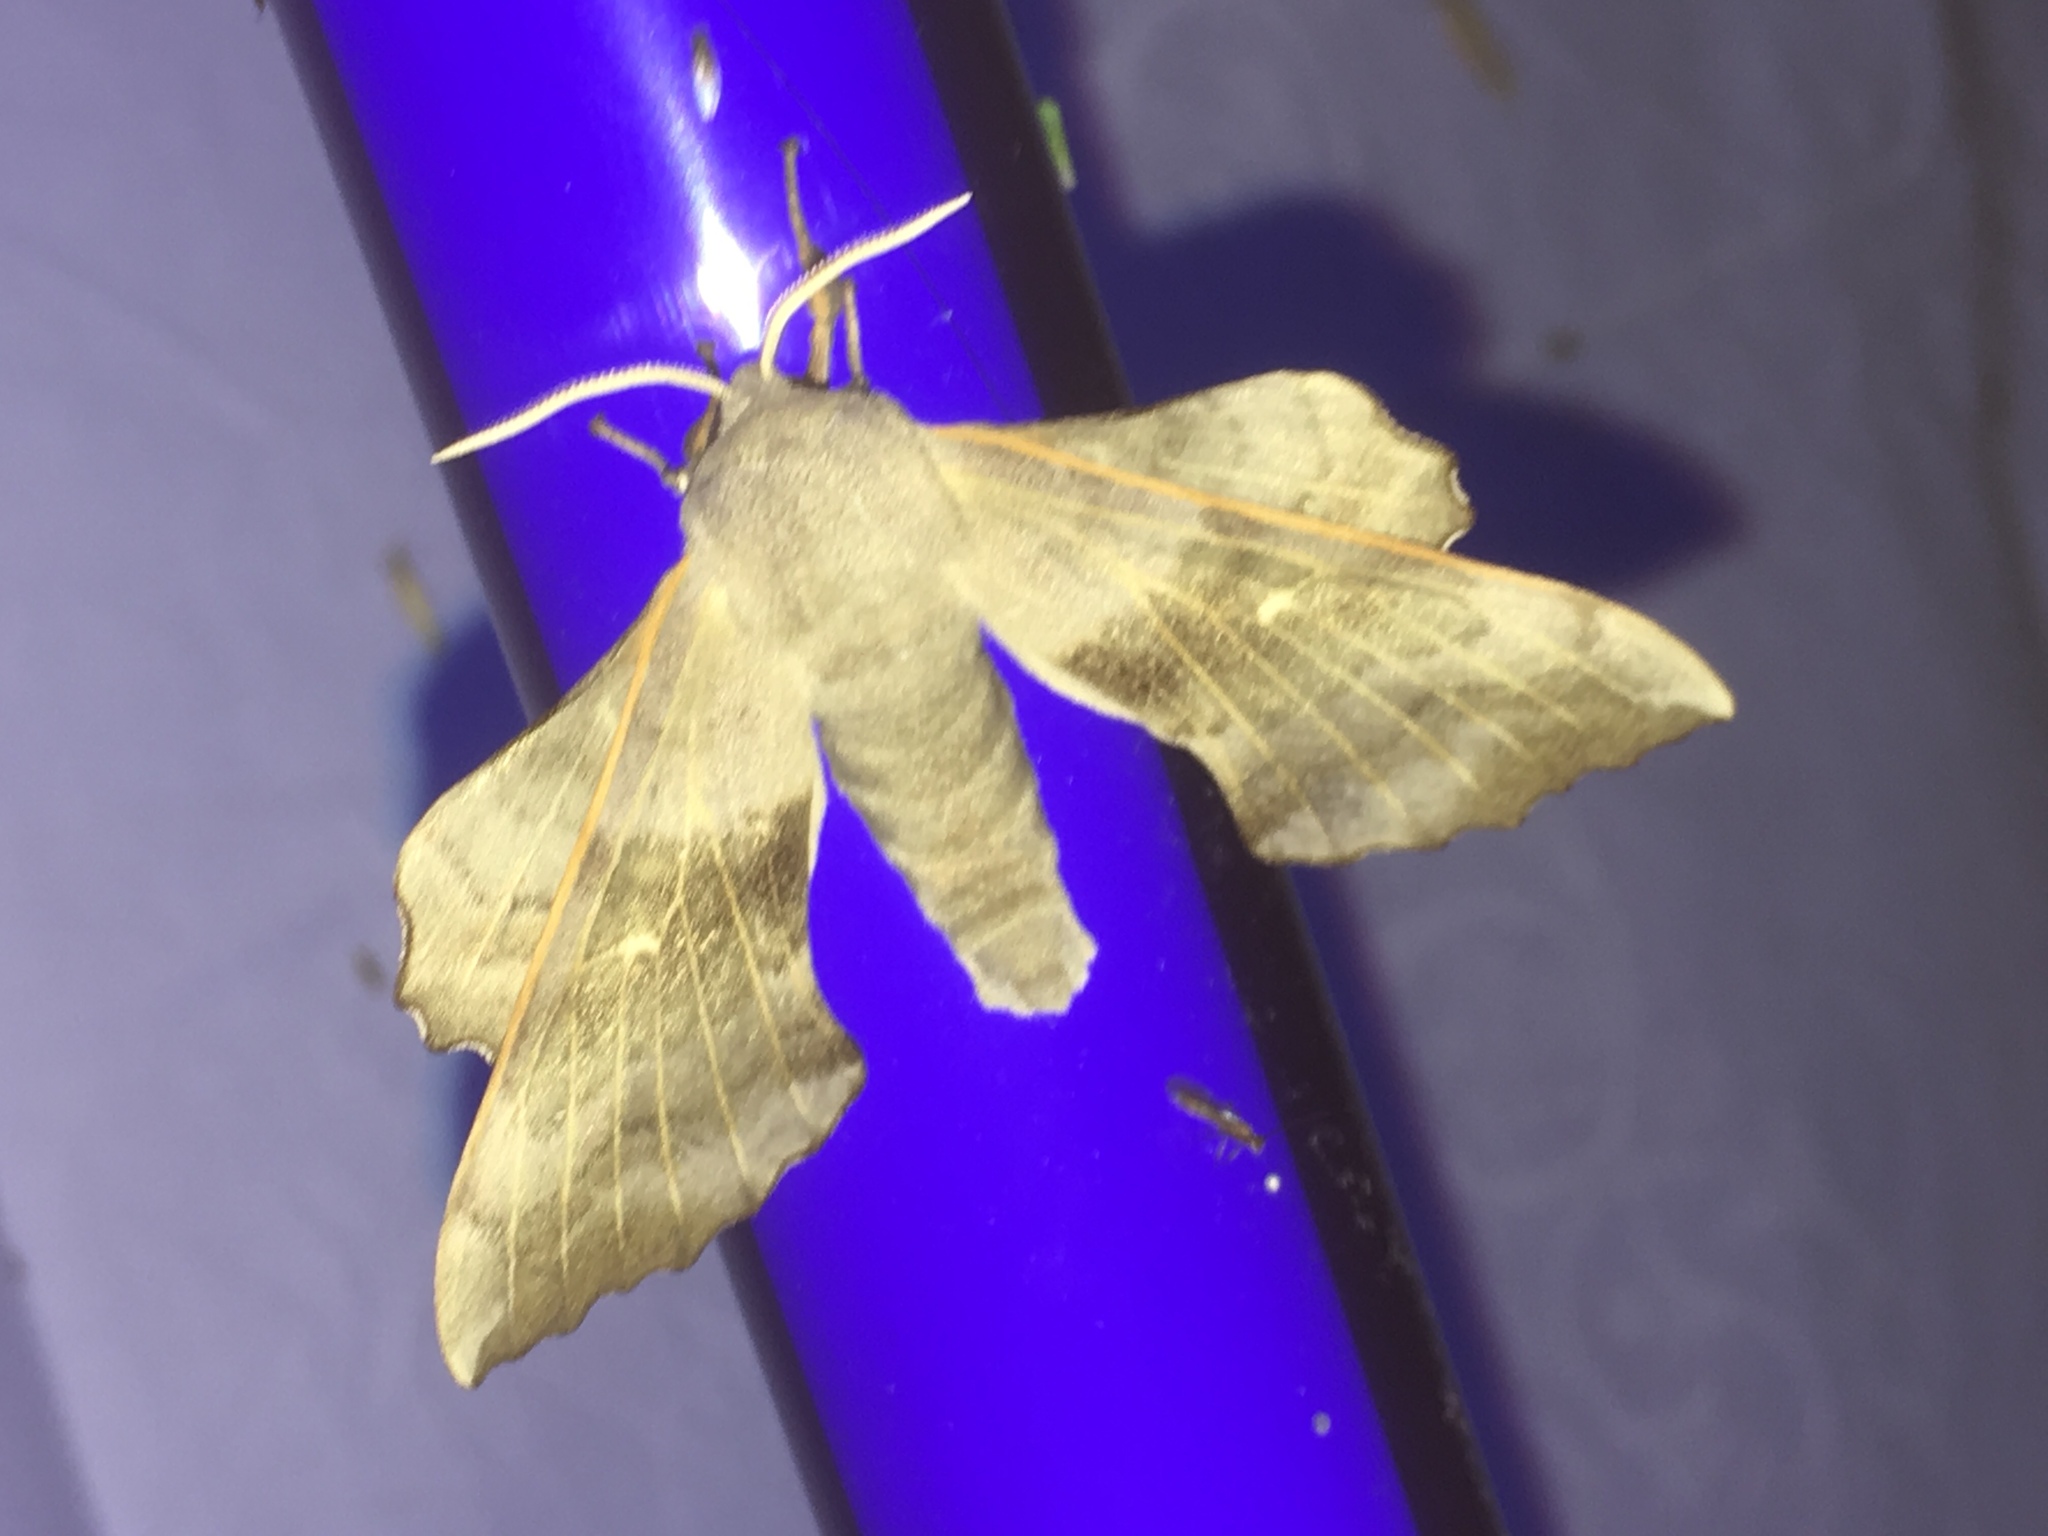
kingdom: Animalia
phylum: Arthropoda
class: Insecta
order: Lepidoptera
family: Sphingidae
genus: Laothoe
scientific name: Laothoe populi
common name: Poplar hawk-moth
